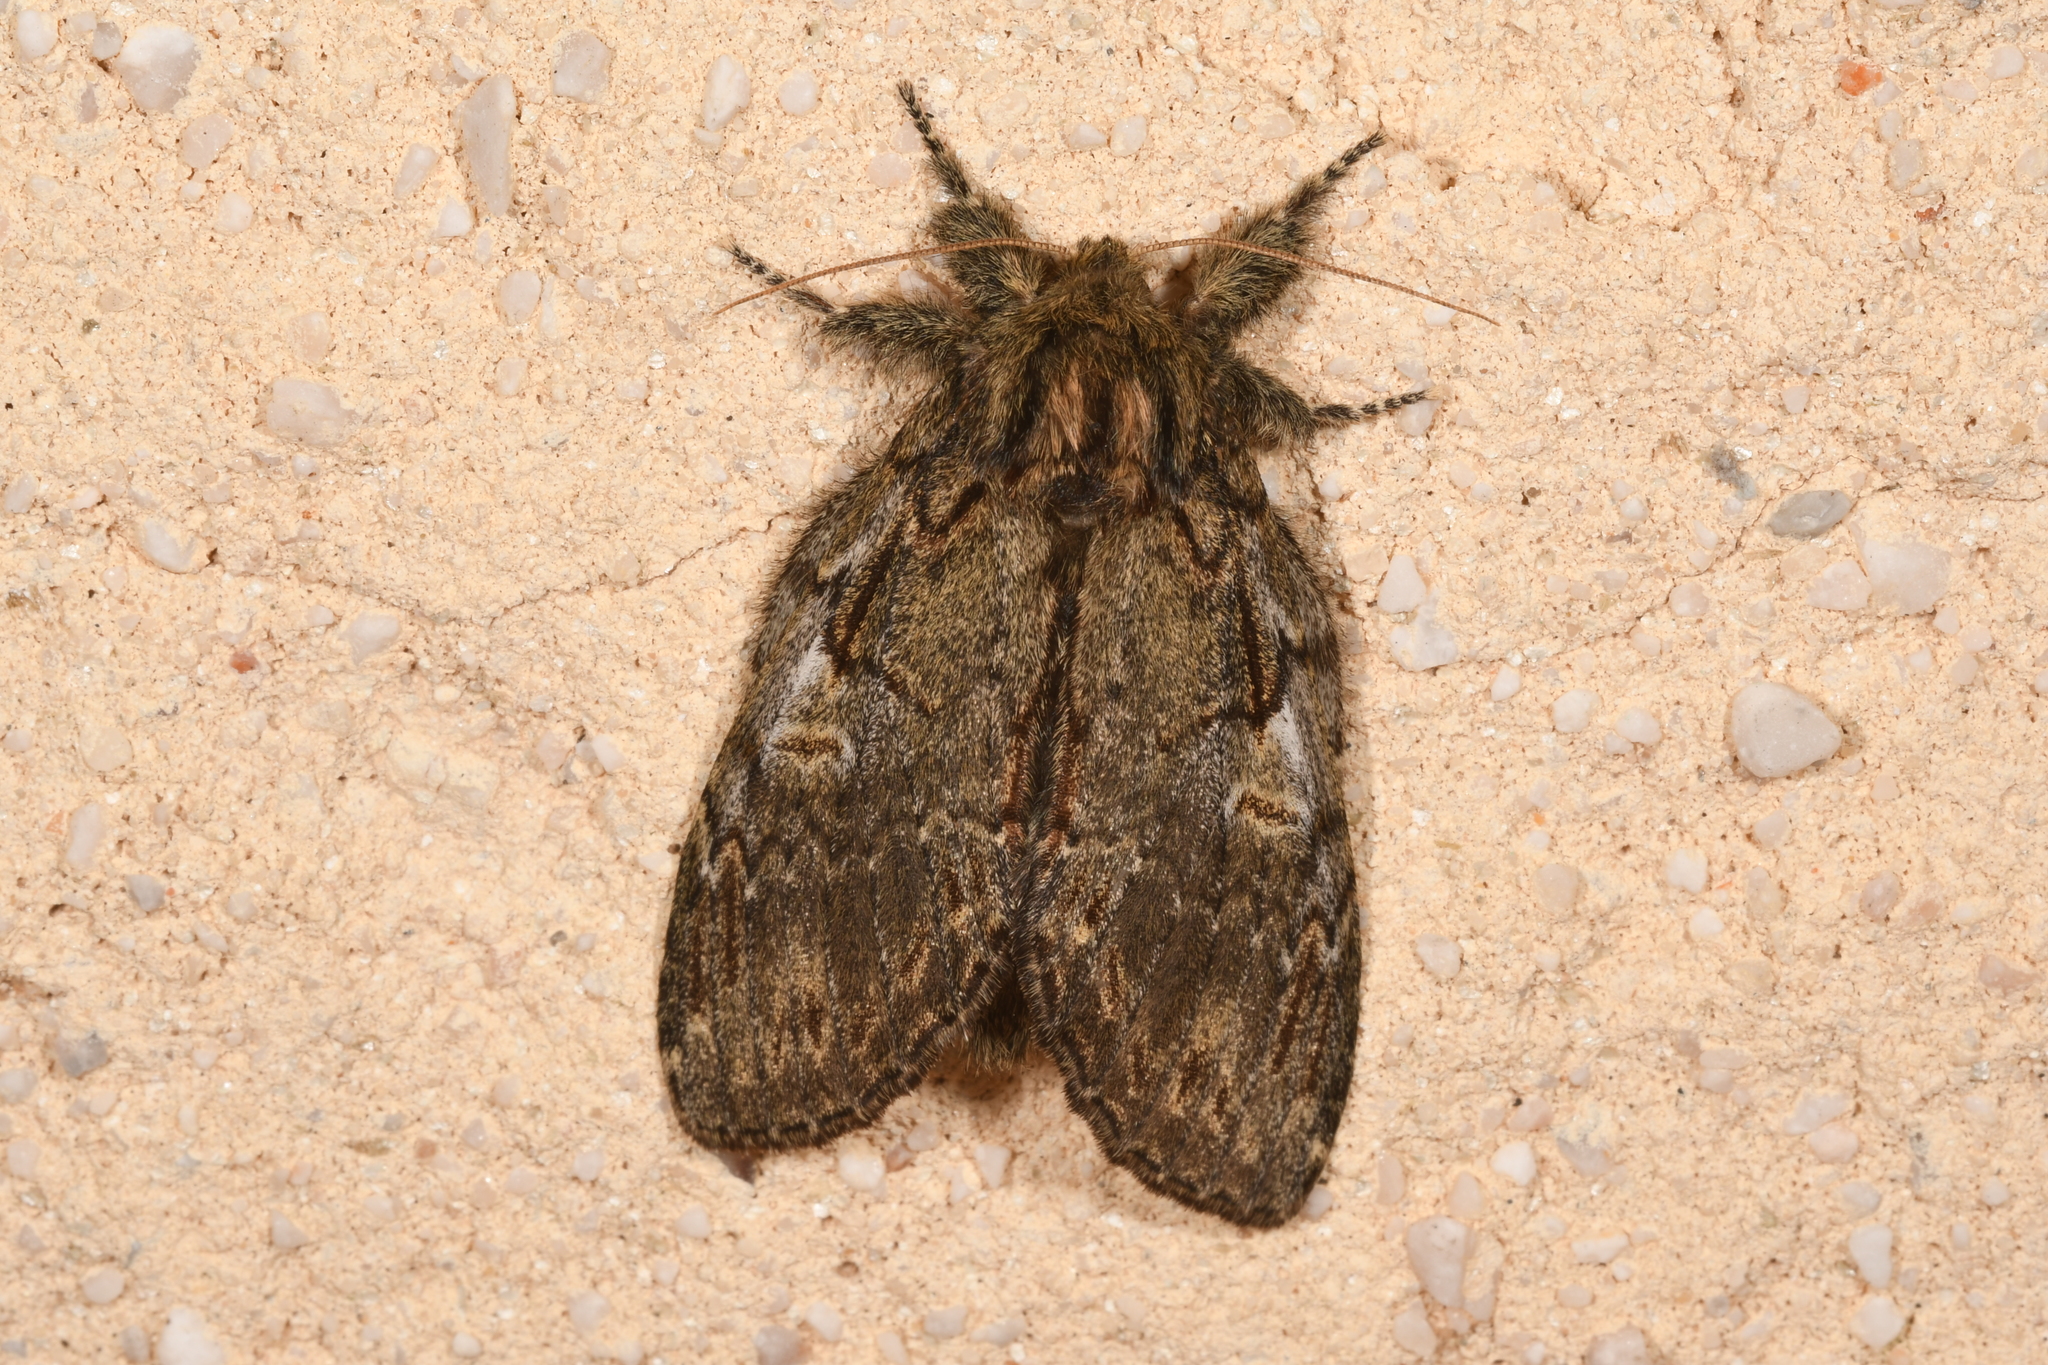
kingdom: Animalia
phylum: Arthropoda
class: Insecta
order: Lepidoptera
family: Notodontidae
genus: Peridea
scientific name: Peridea anceps
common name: Great prominent
